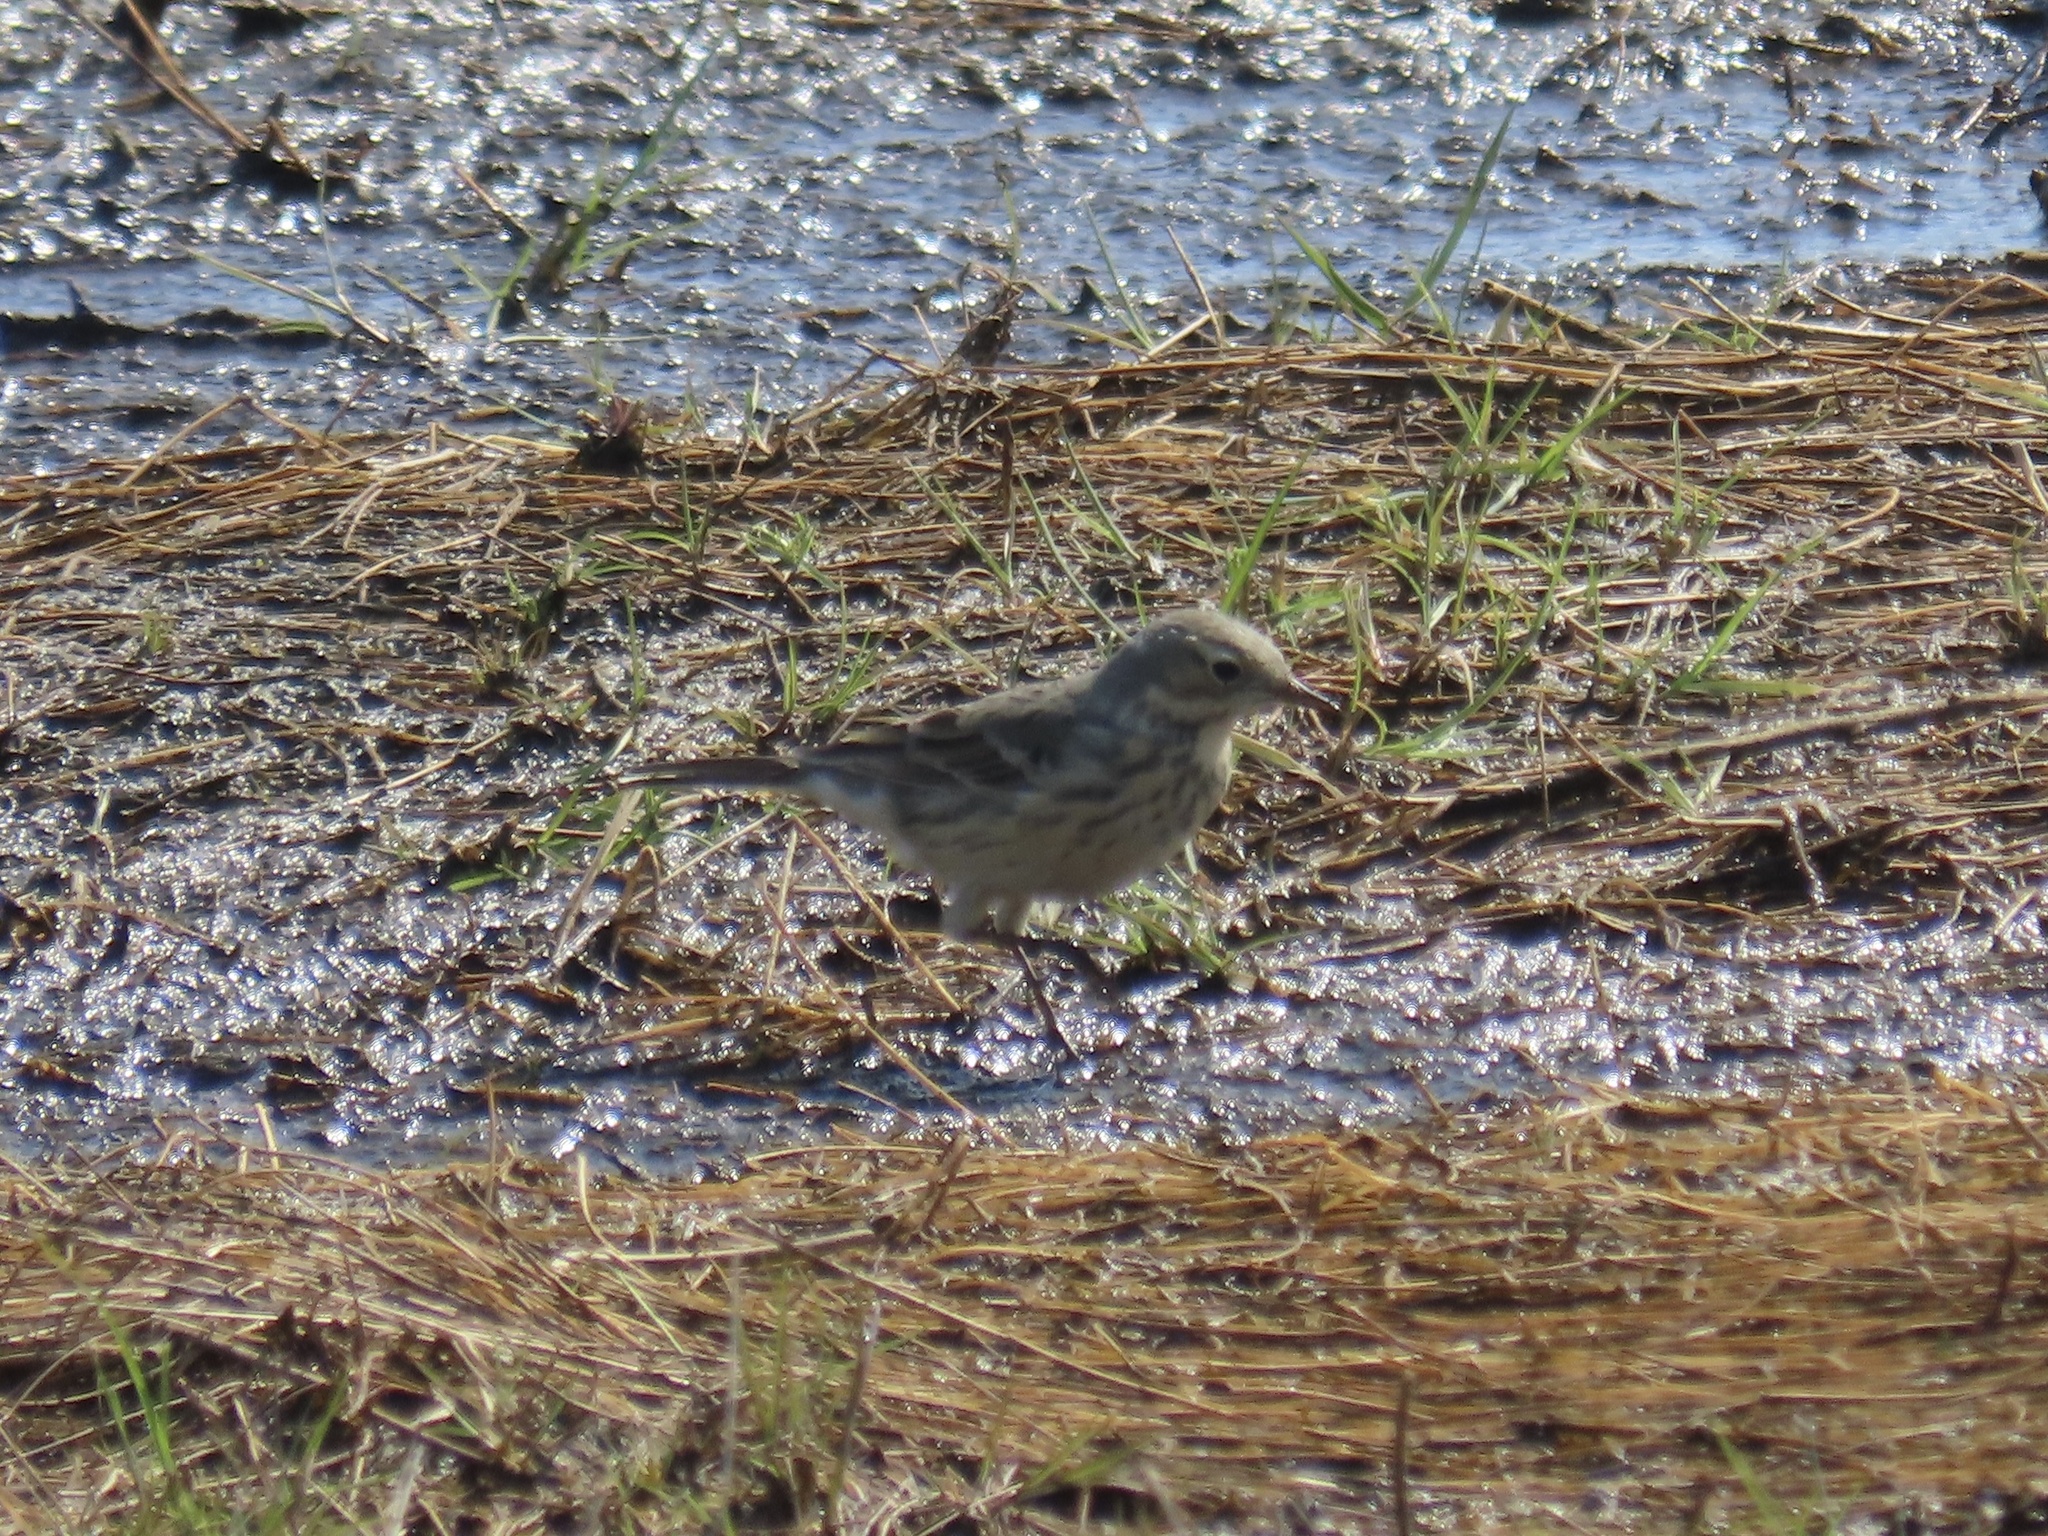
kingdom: Animalia
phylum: Chordata
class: Aves
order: Passeriformes
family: Motacillidae
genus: Anthus
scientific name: Anthus rubescens
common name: Buff-bellied pipit
